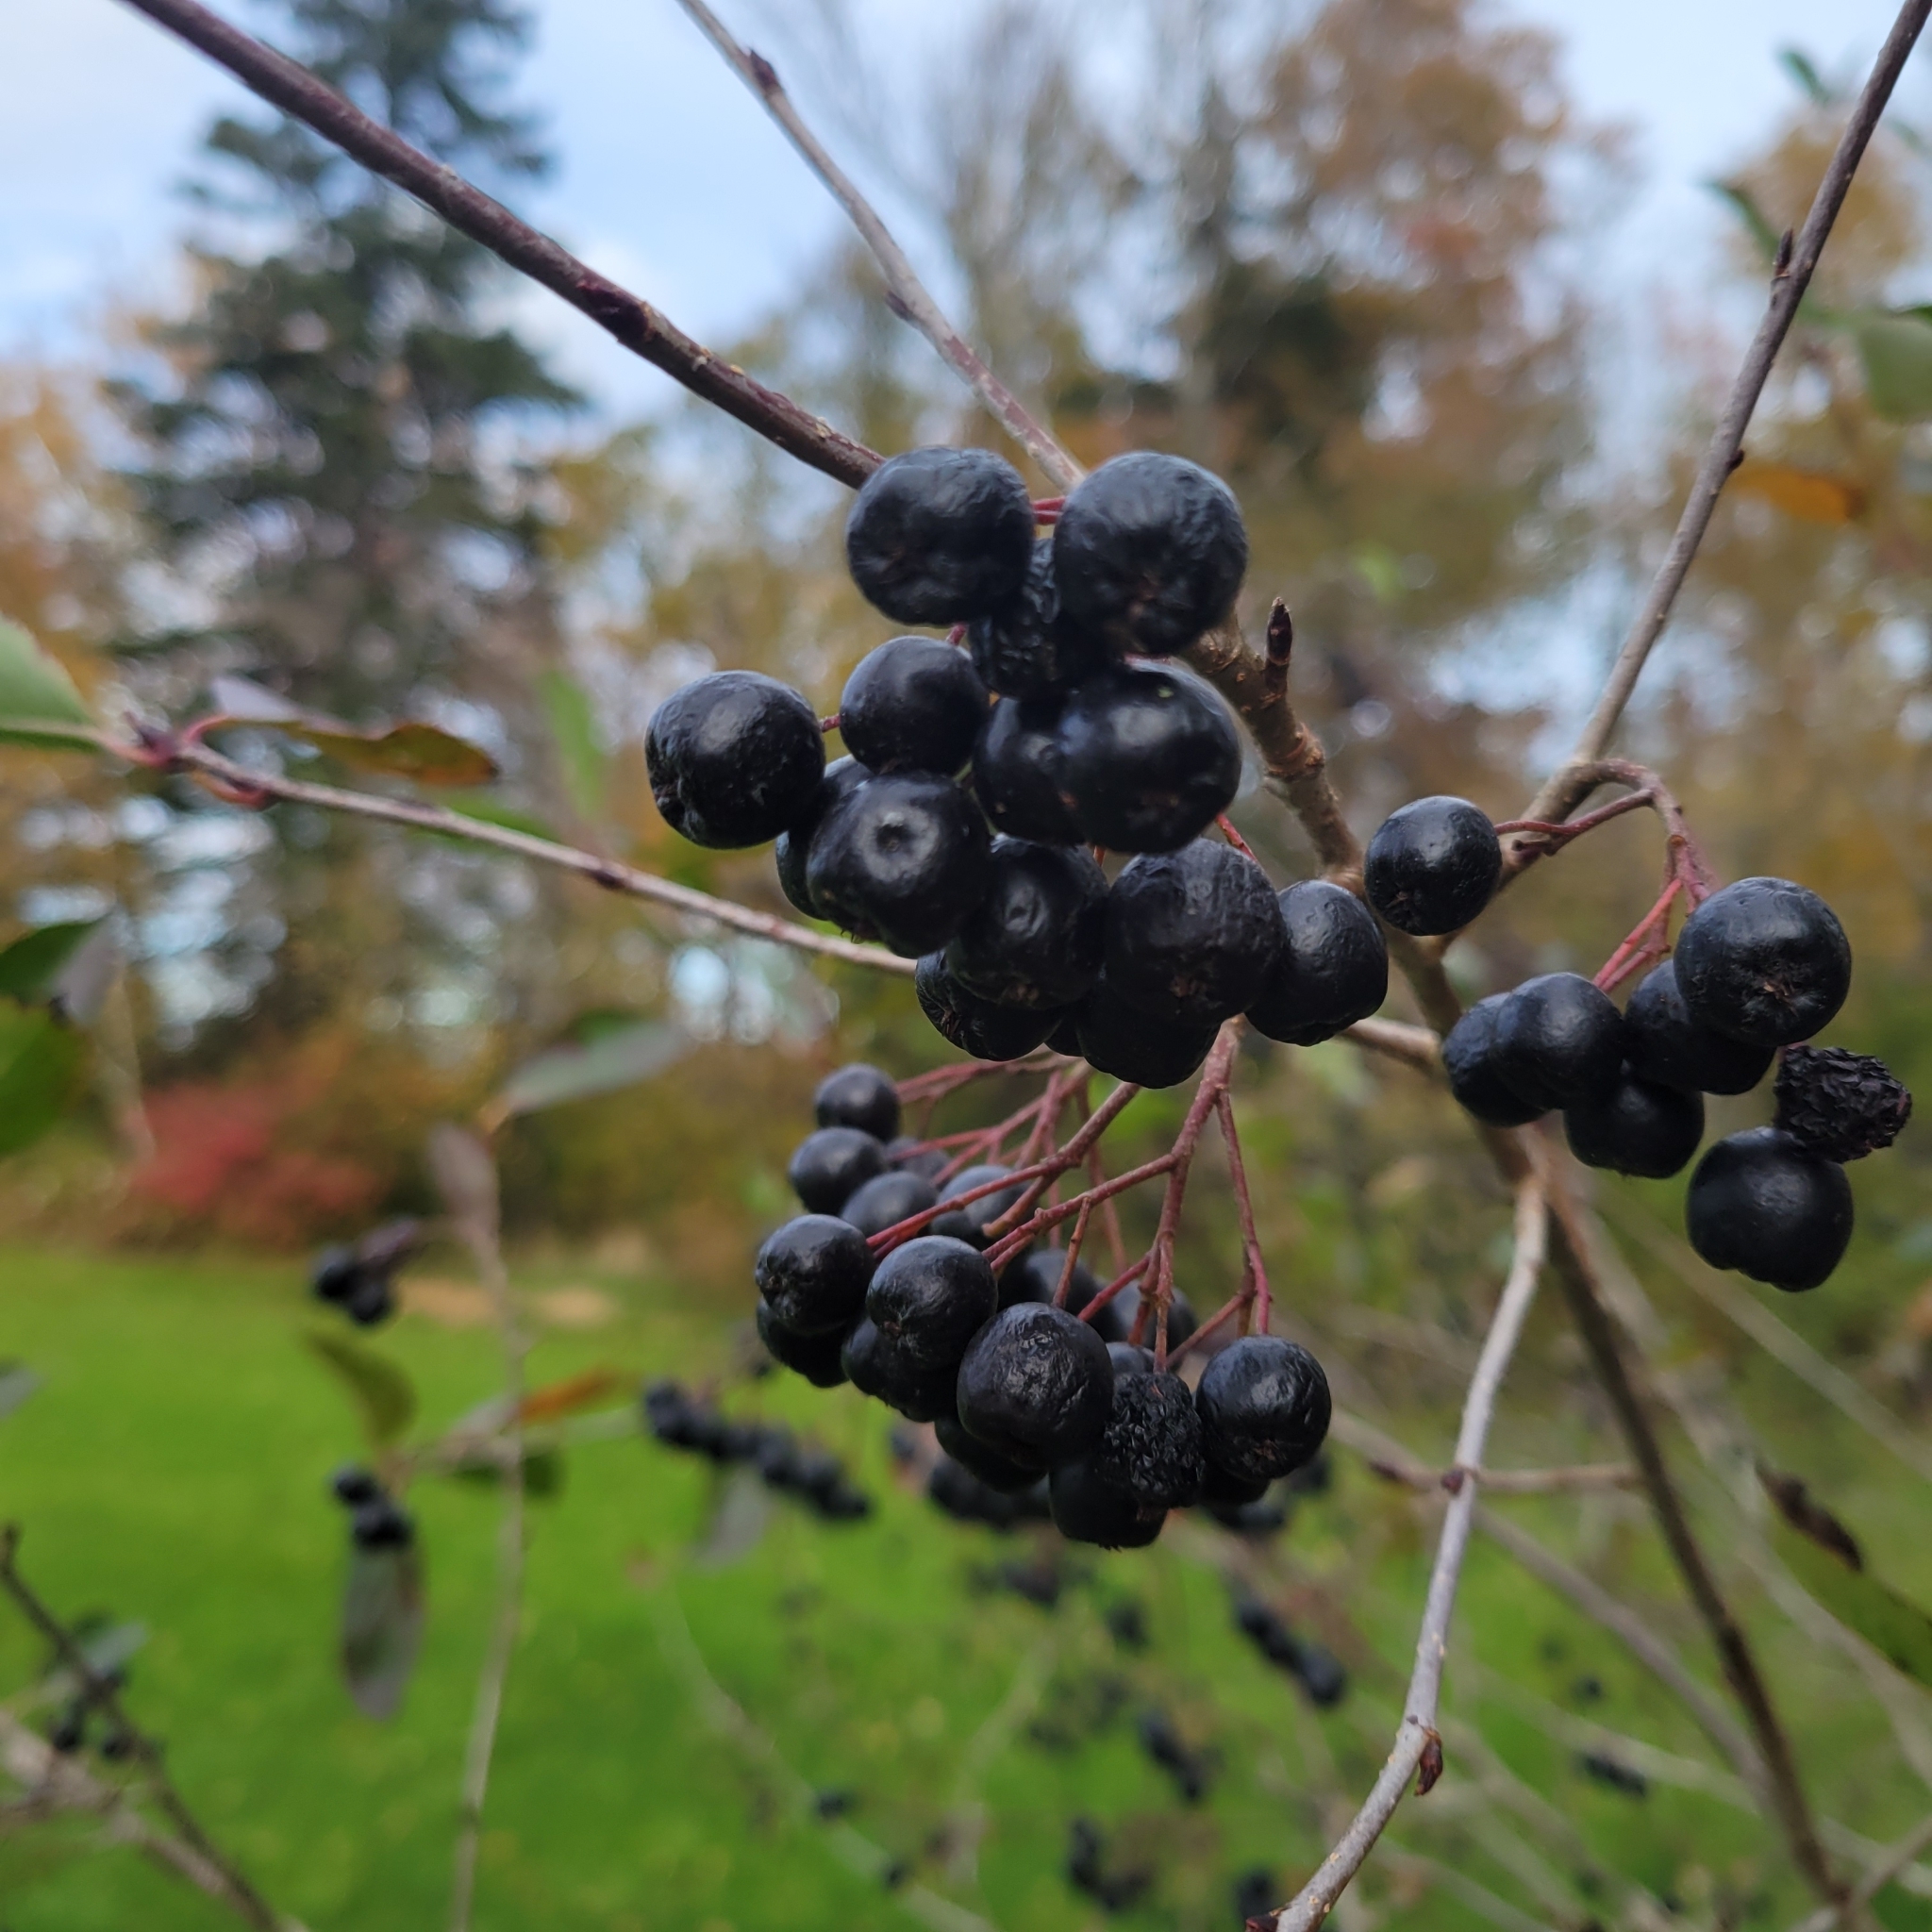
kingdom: Plantae
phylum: Tracheophyta
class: Magnoliopsida
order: Rosales
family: Rosaceae
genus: Aronia
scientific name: Aronia melanocarpa
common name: Black chokeberry
